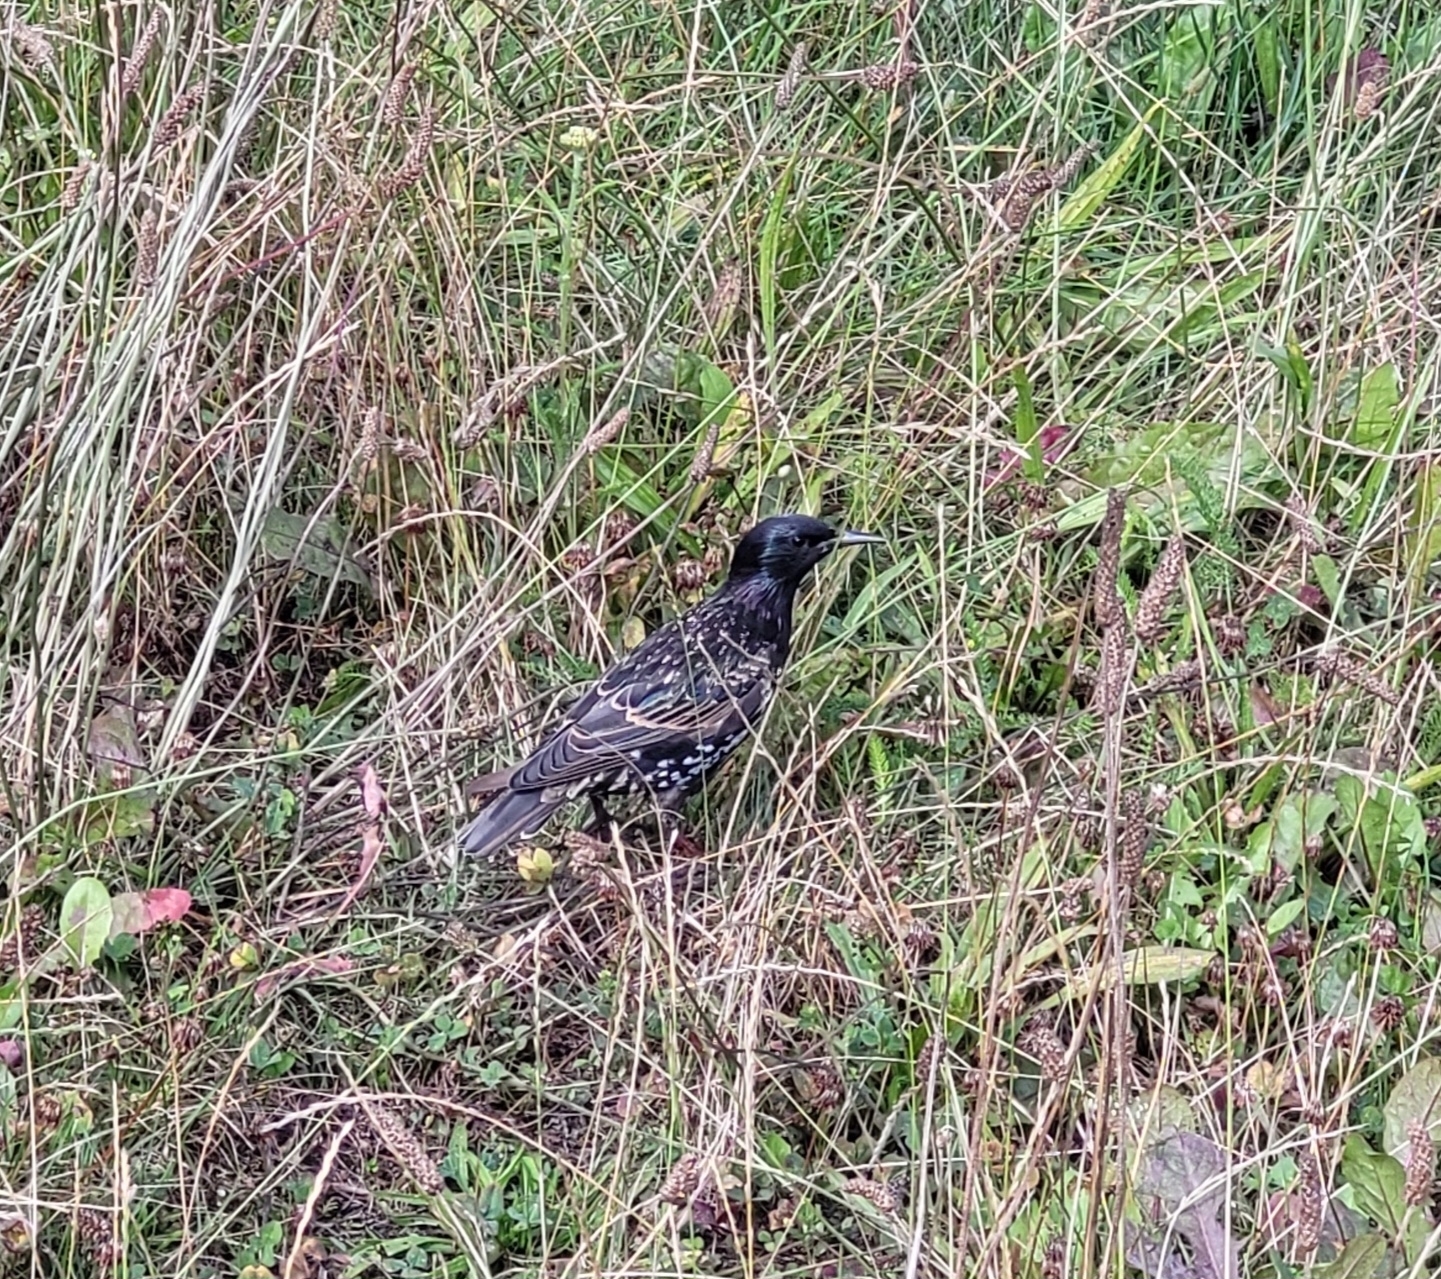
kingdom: Animalia
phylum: Chordata
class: Aves
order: Passeriformes
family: Sturnidae
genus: Sturnus
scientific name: Sturnus vulgaris
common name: Common starling
